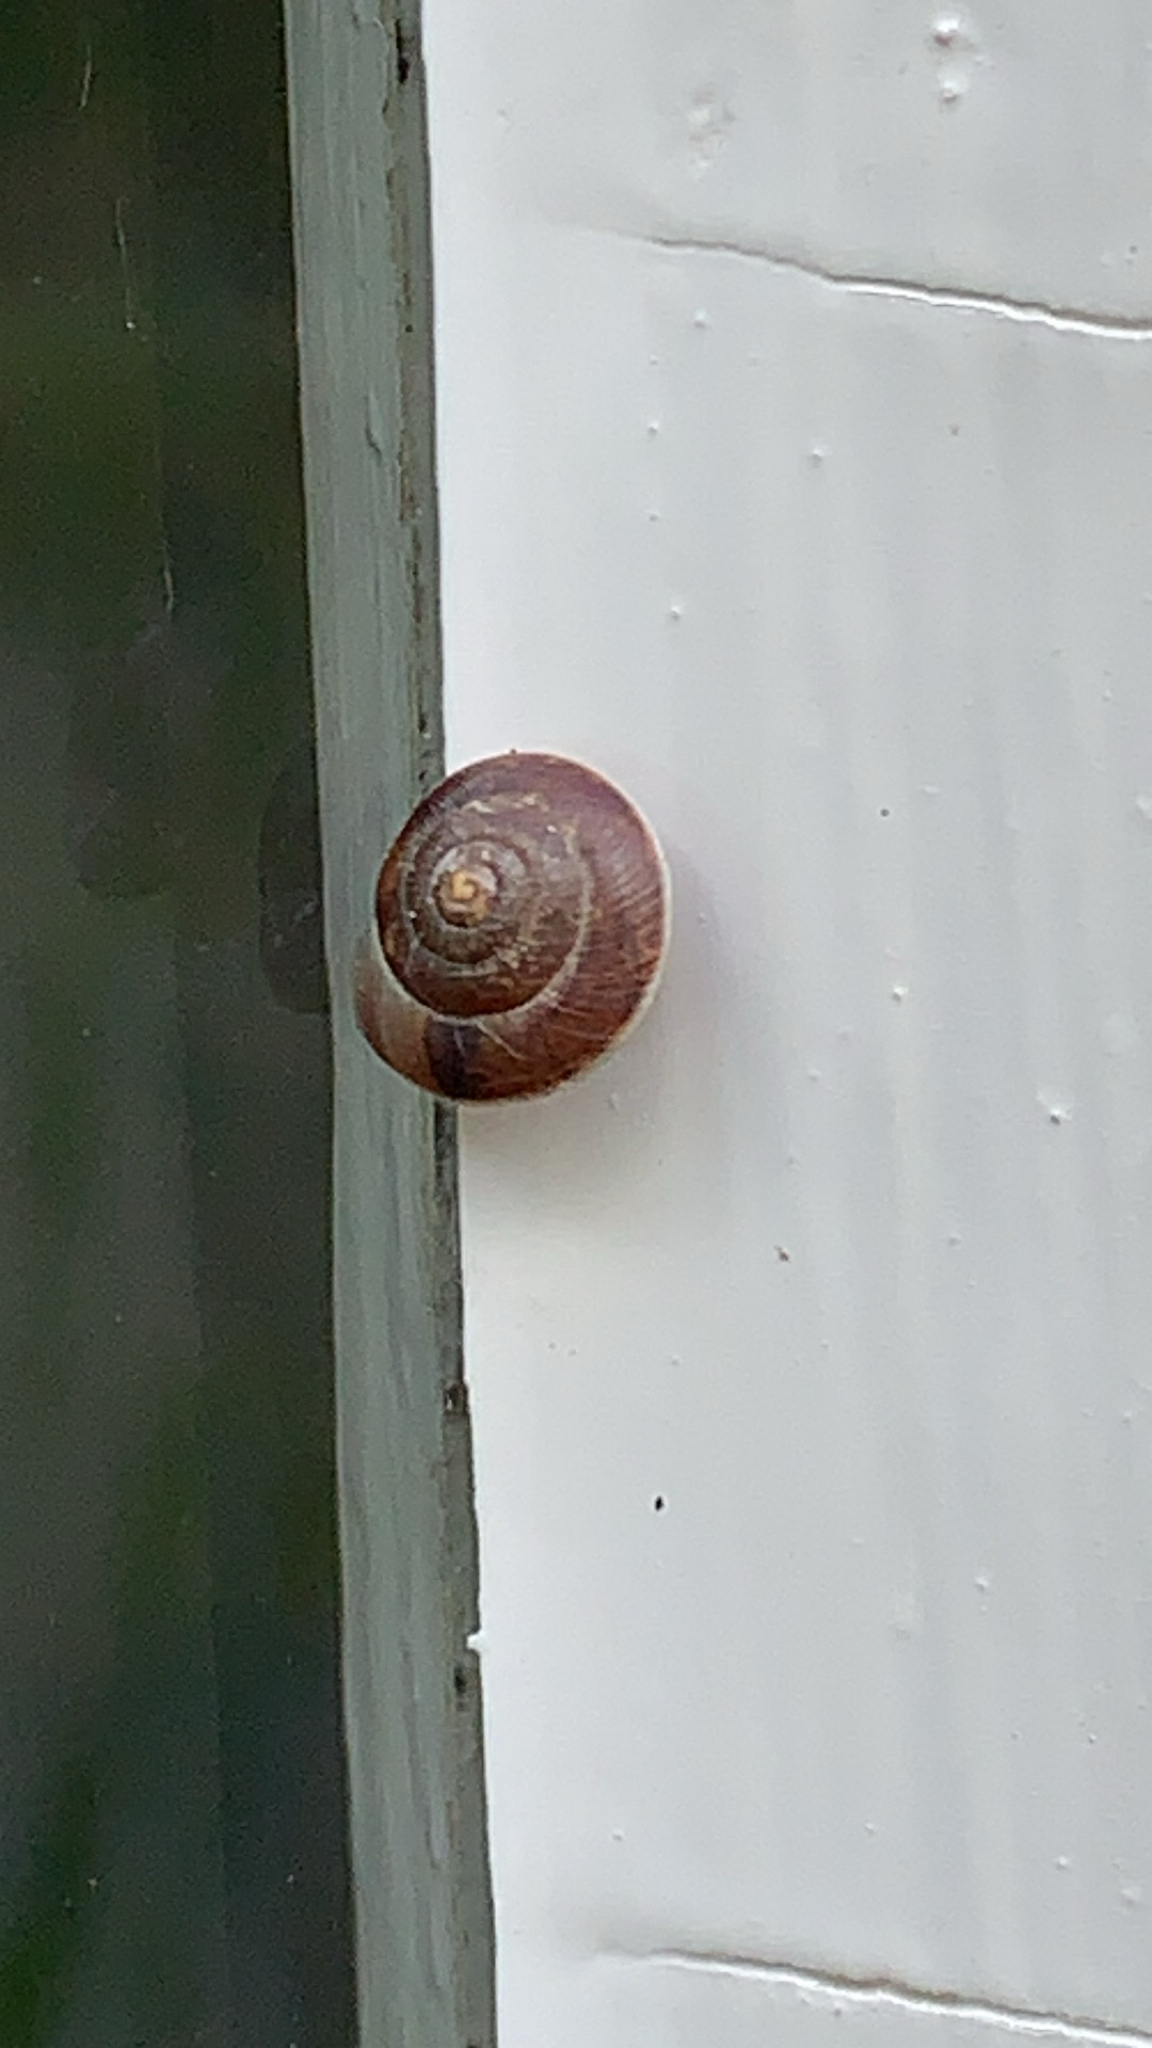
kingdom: Animalia
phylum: Mollusca
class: Gastropoda
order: Stylommatophora
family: Hygromiidae
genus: Hygromia
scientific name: Hygromia cinctella
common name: Girdled snail
